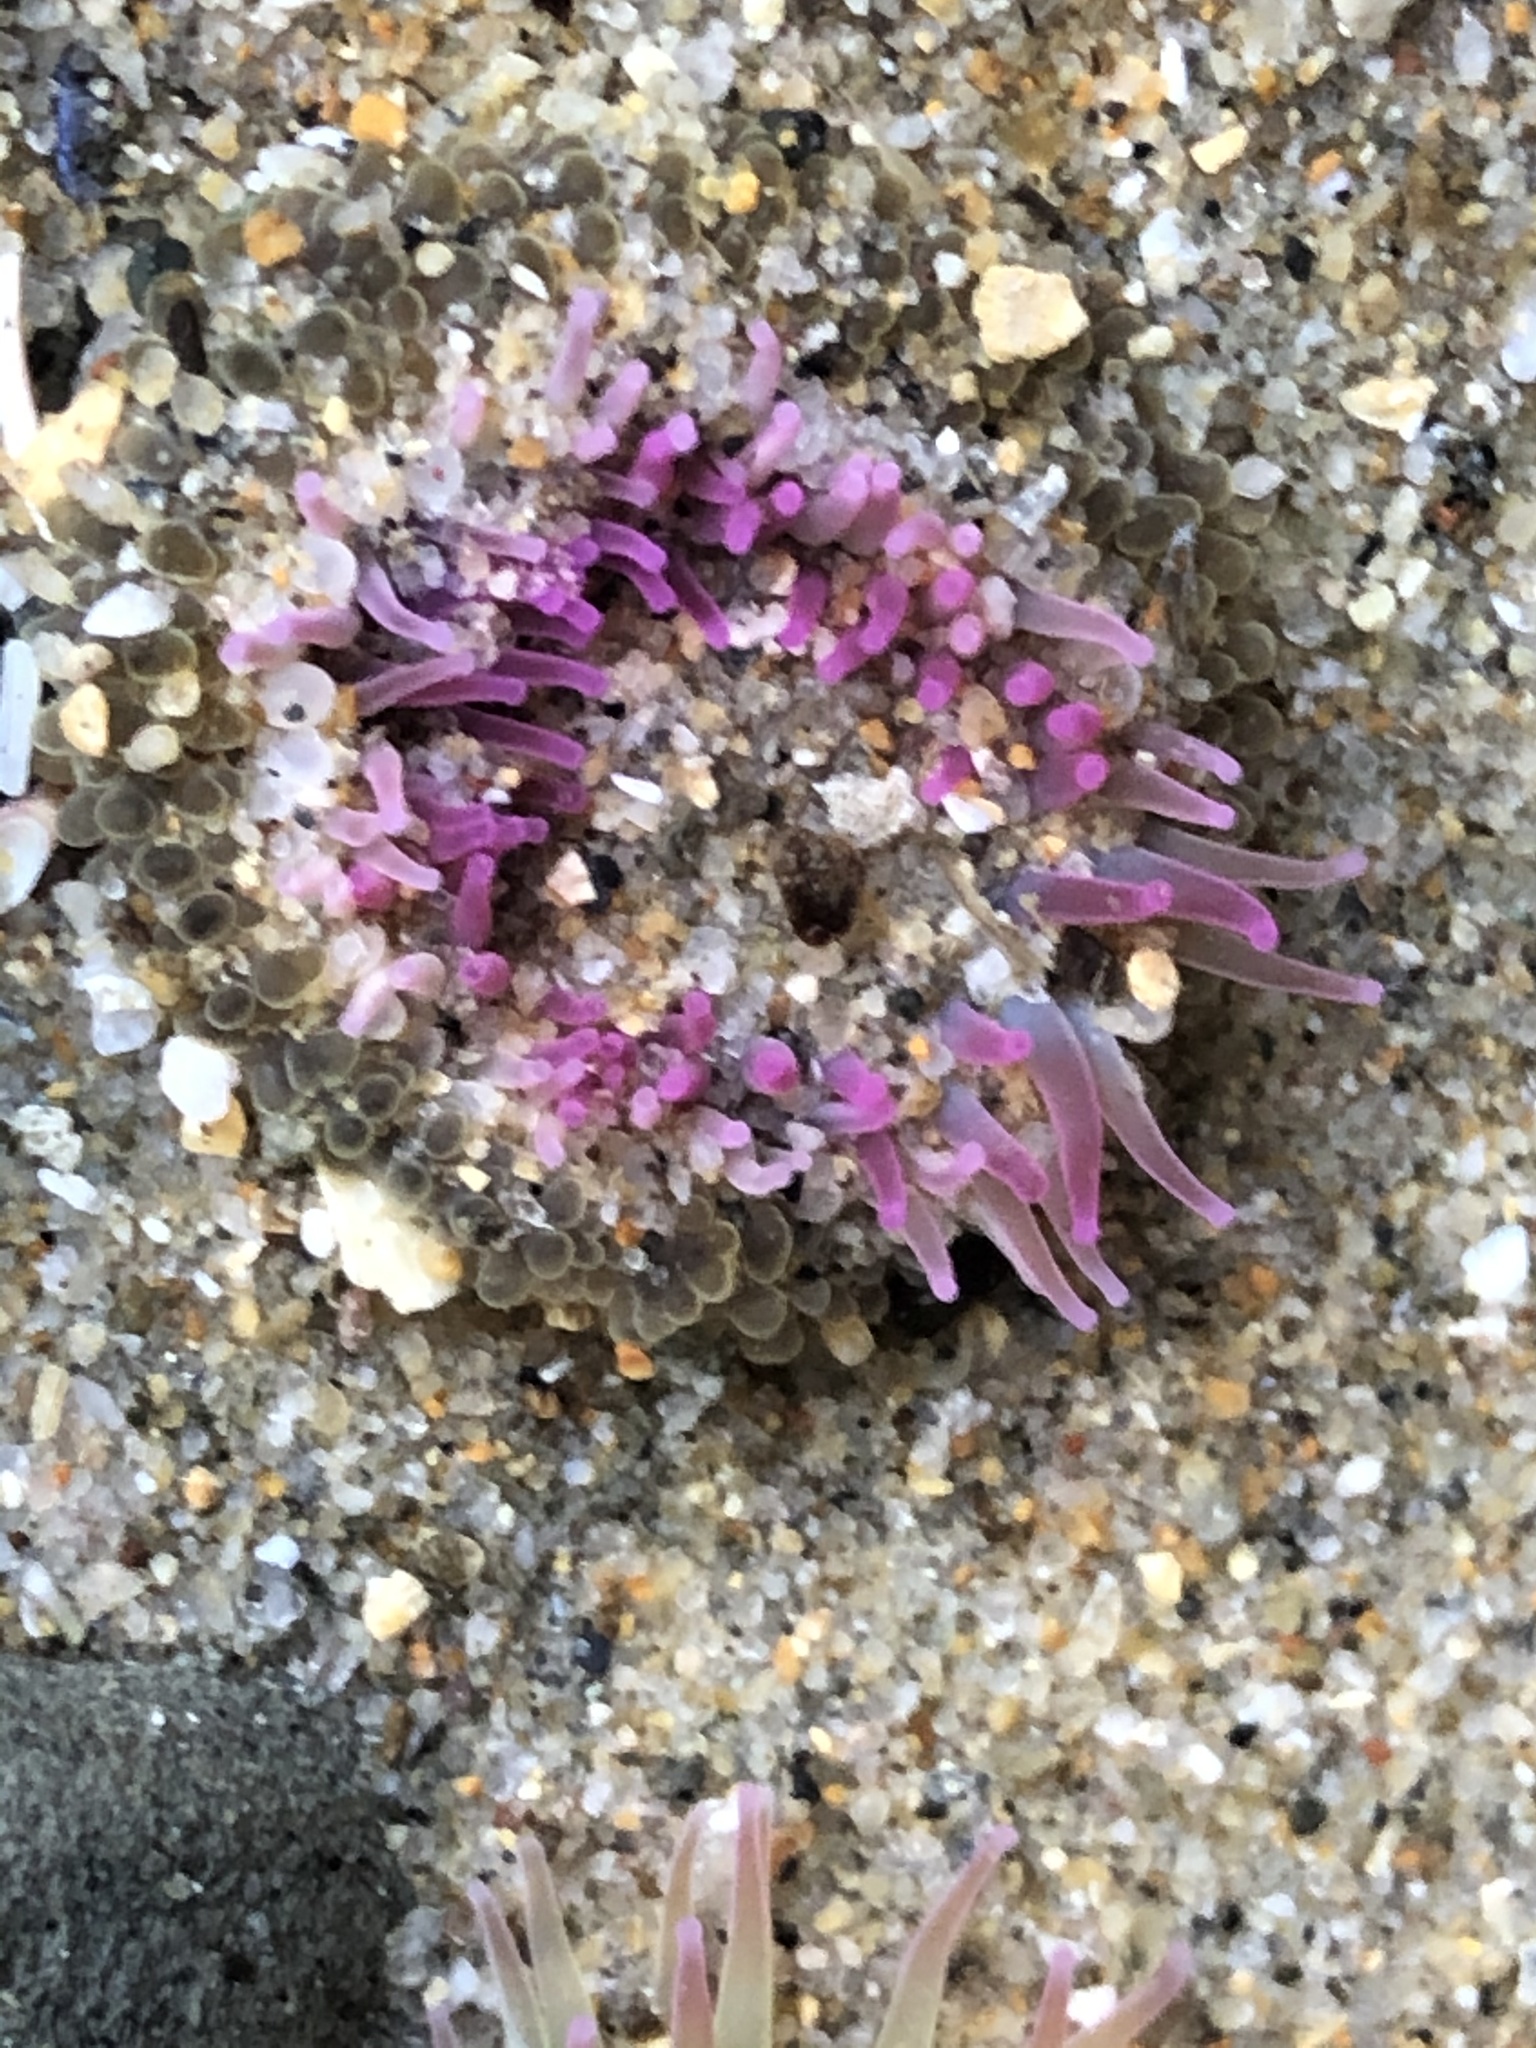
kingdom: Animalia
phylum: Cnidaria
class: Anthozoa
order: Actiniaria
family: Actiniidae
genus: Anthopleura
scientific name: Anthopleura elegantissima
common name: Clonal anemone
